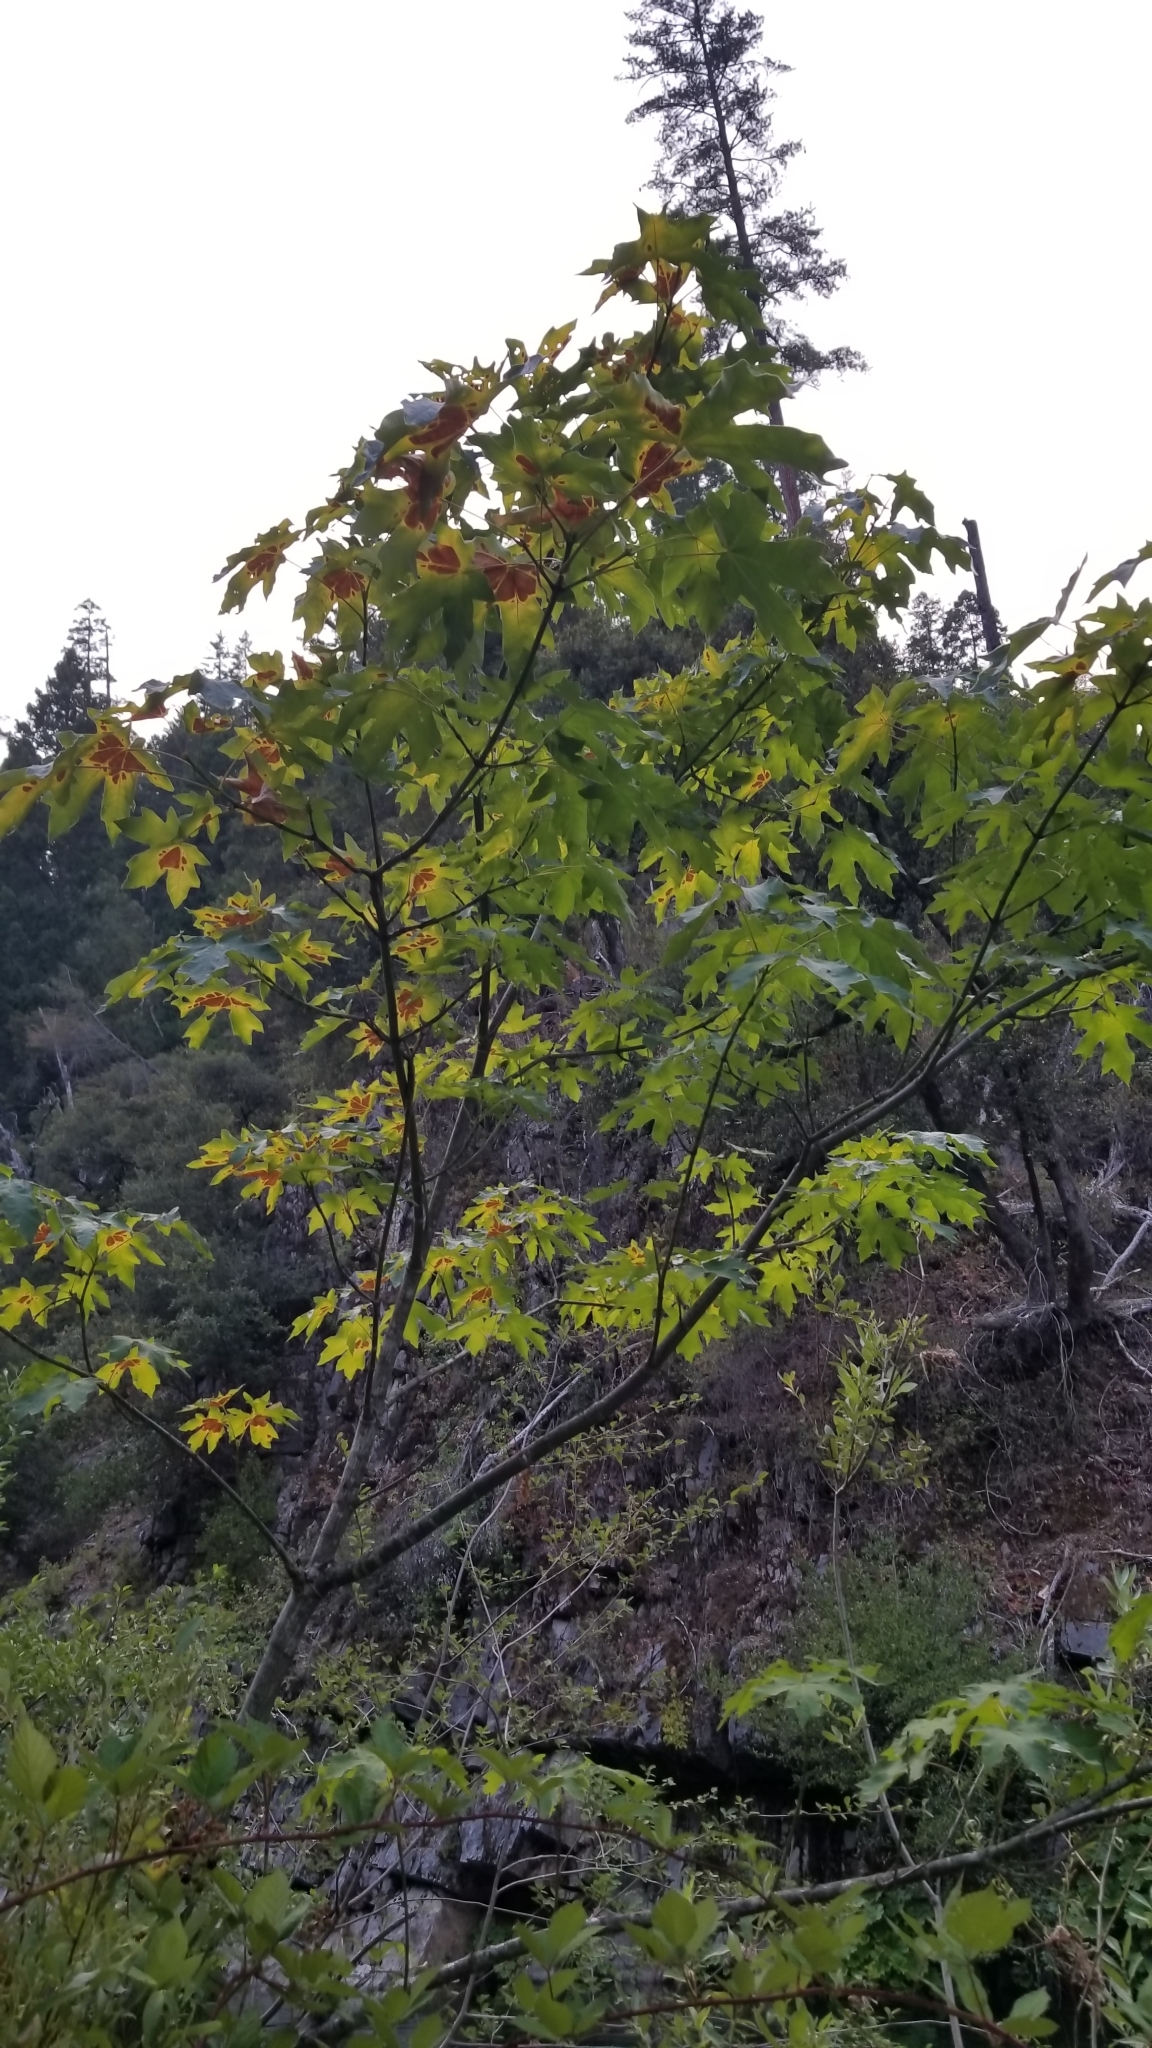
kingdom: Plantae
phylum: Tracheophyta
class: Magnoliopsida
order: Sapindales
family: Sapindaceae
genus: Acer
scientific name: Acer macrophyllum
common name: Oregon maple
